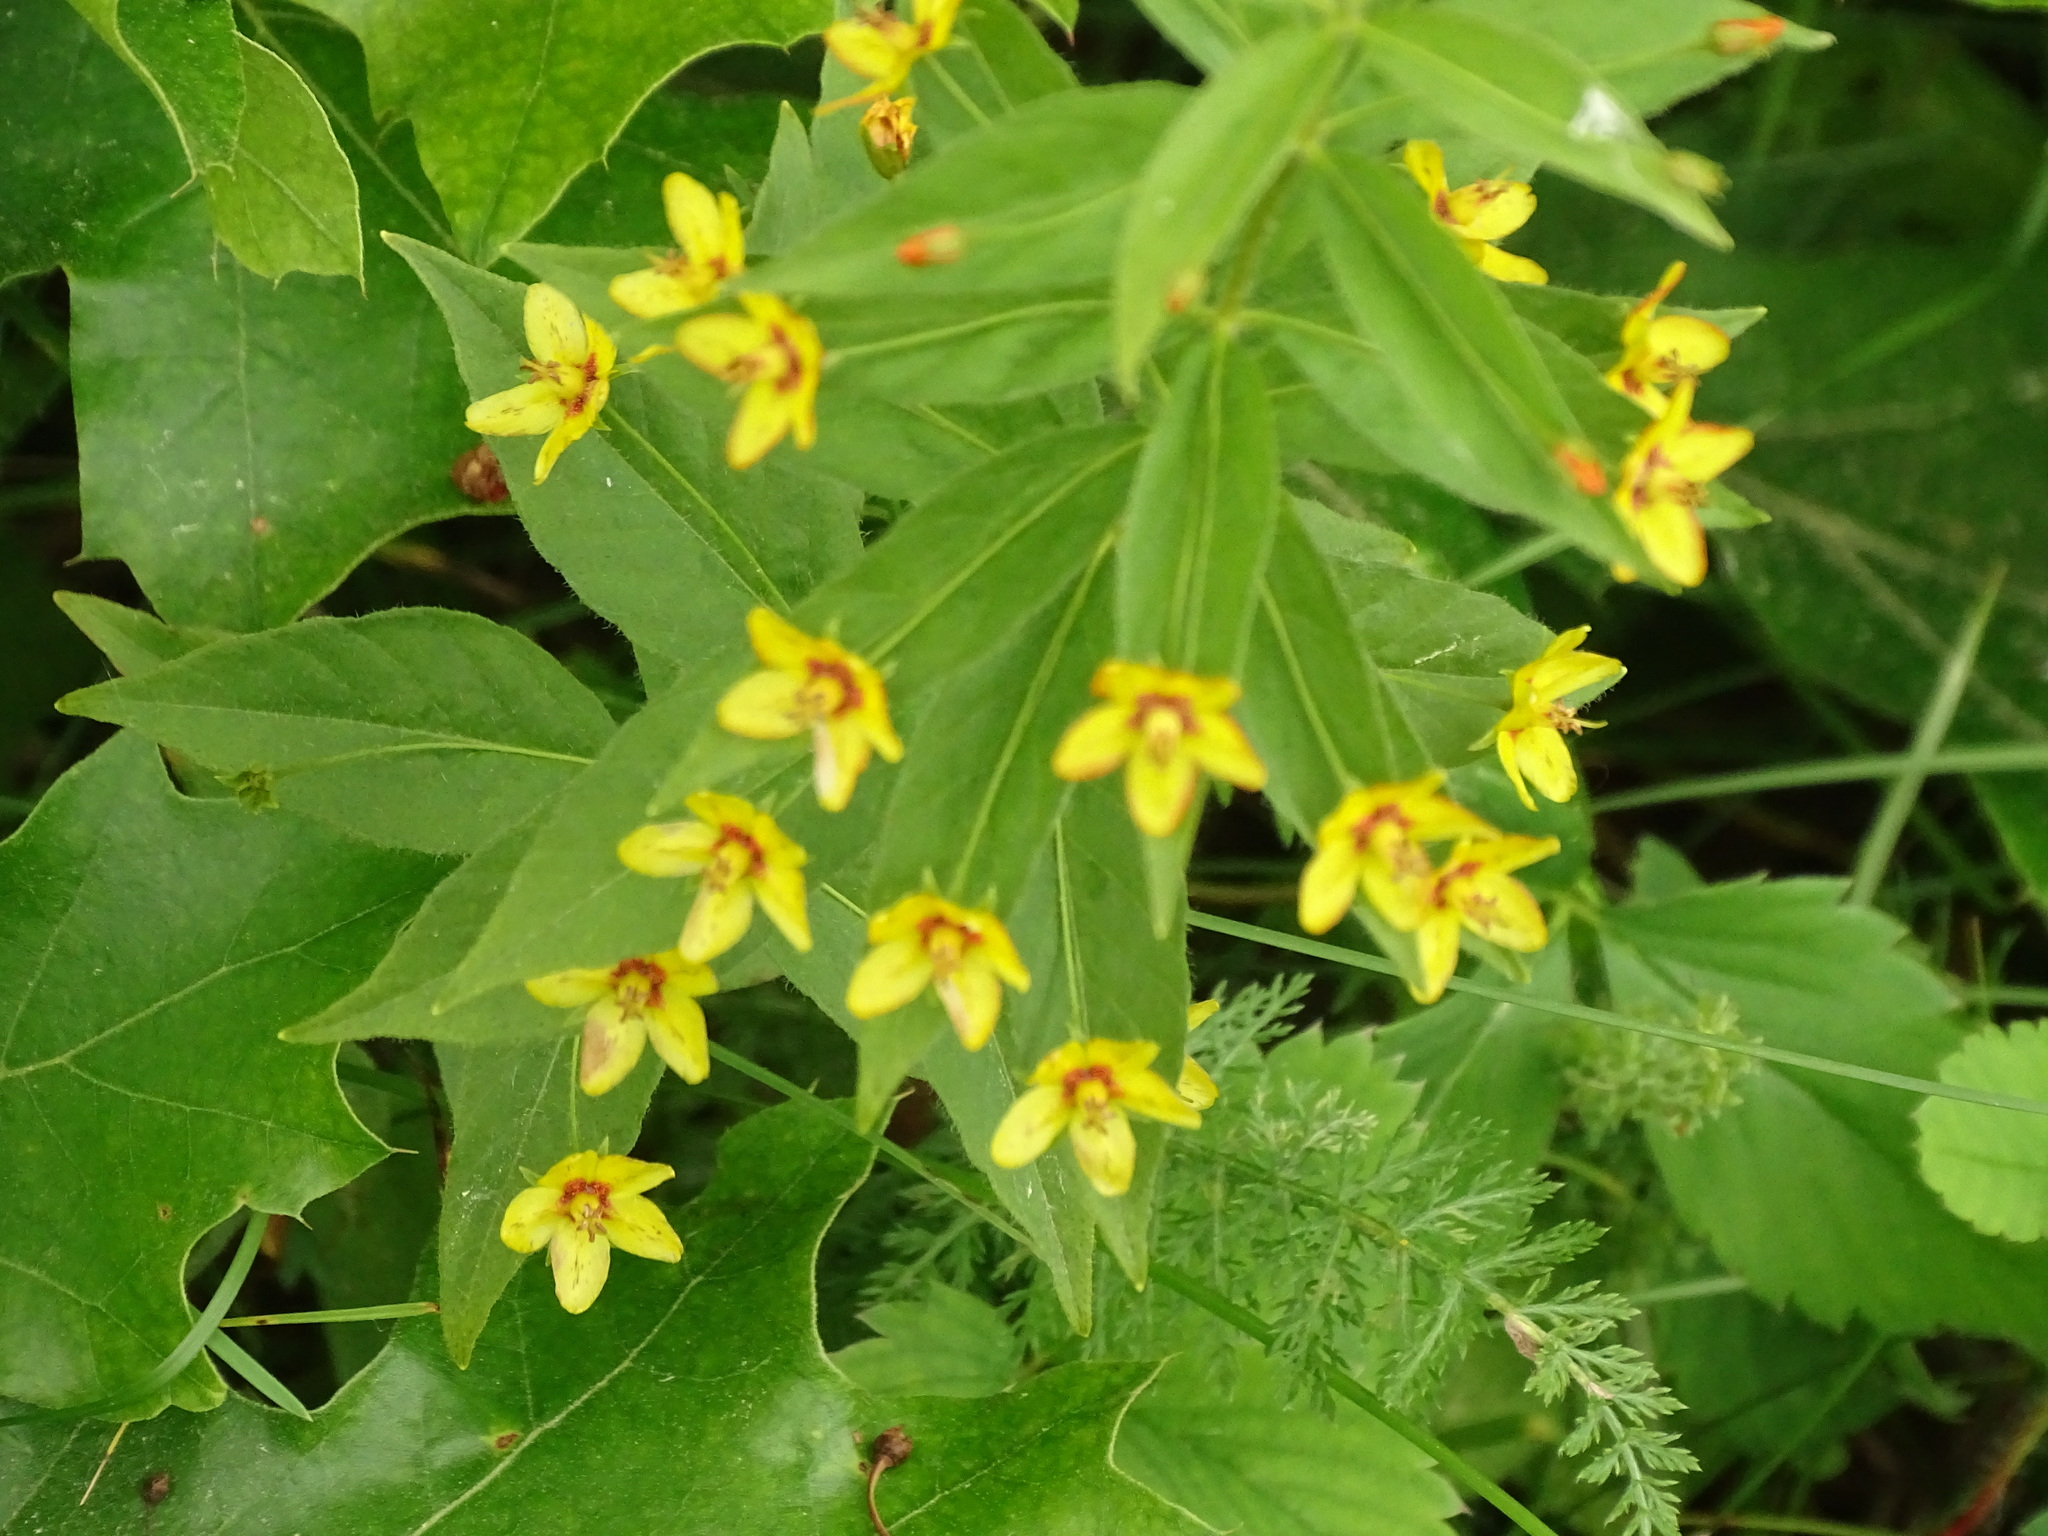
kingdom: Plantae
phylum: Tracheophyta
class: Magnoliopsida
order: Ericales
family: Primulaceae
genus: Lysimachia
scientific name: Lysimachia quadrifolia
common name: Whorled loosestrife
